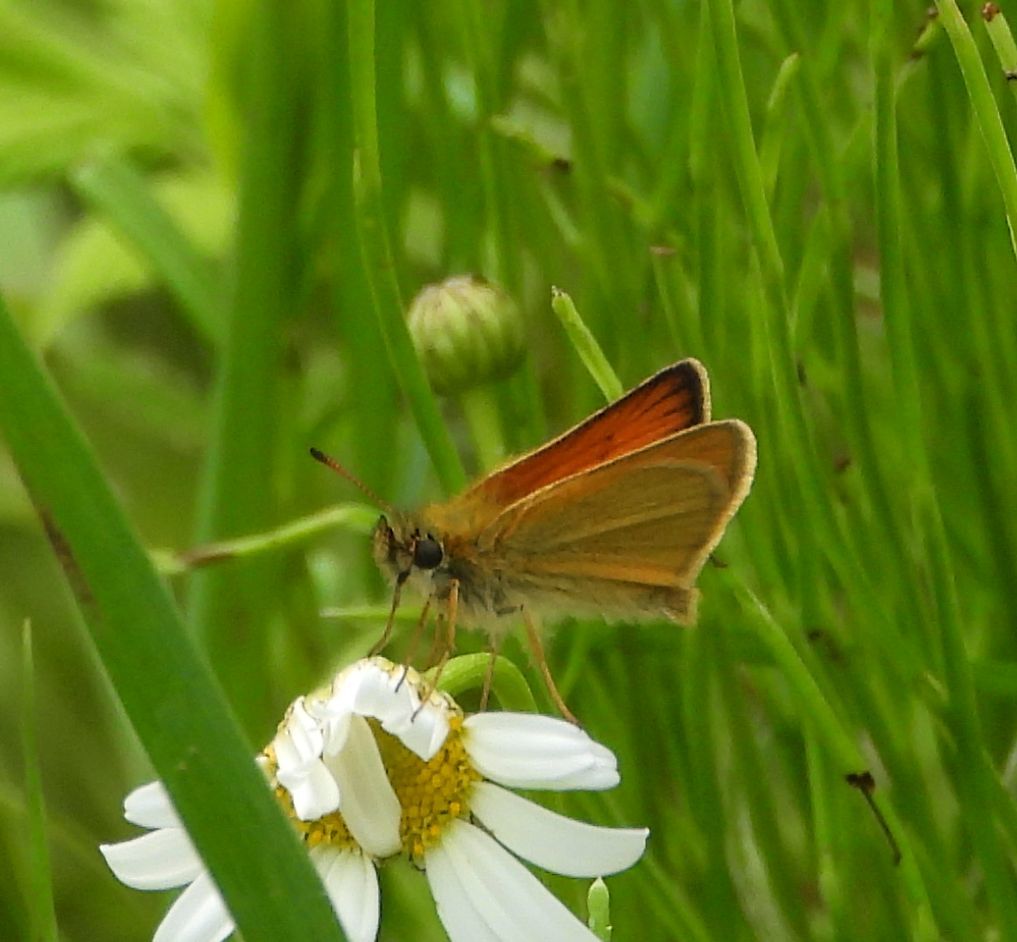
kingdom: Animalia
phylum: Arthropoda
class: Insecta
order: Lepidoptera
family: Hesperiidae
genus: Thymelicus
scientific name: Thymelicus lineola
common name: Essex skipper
